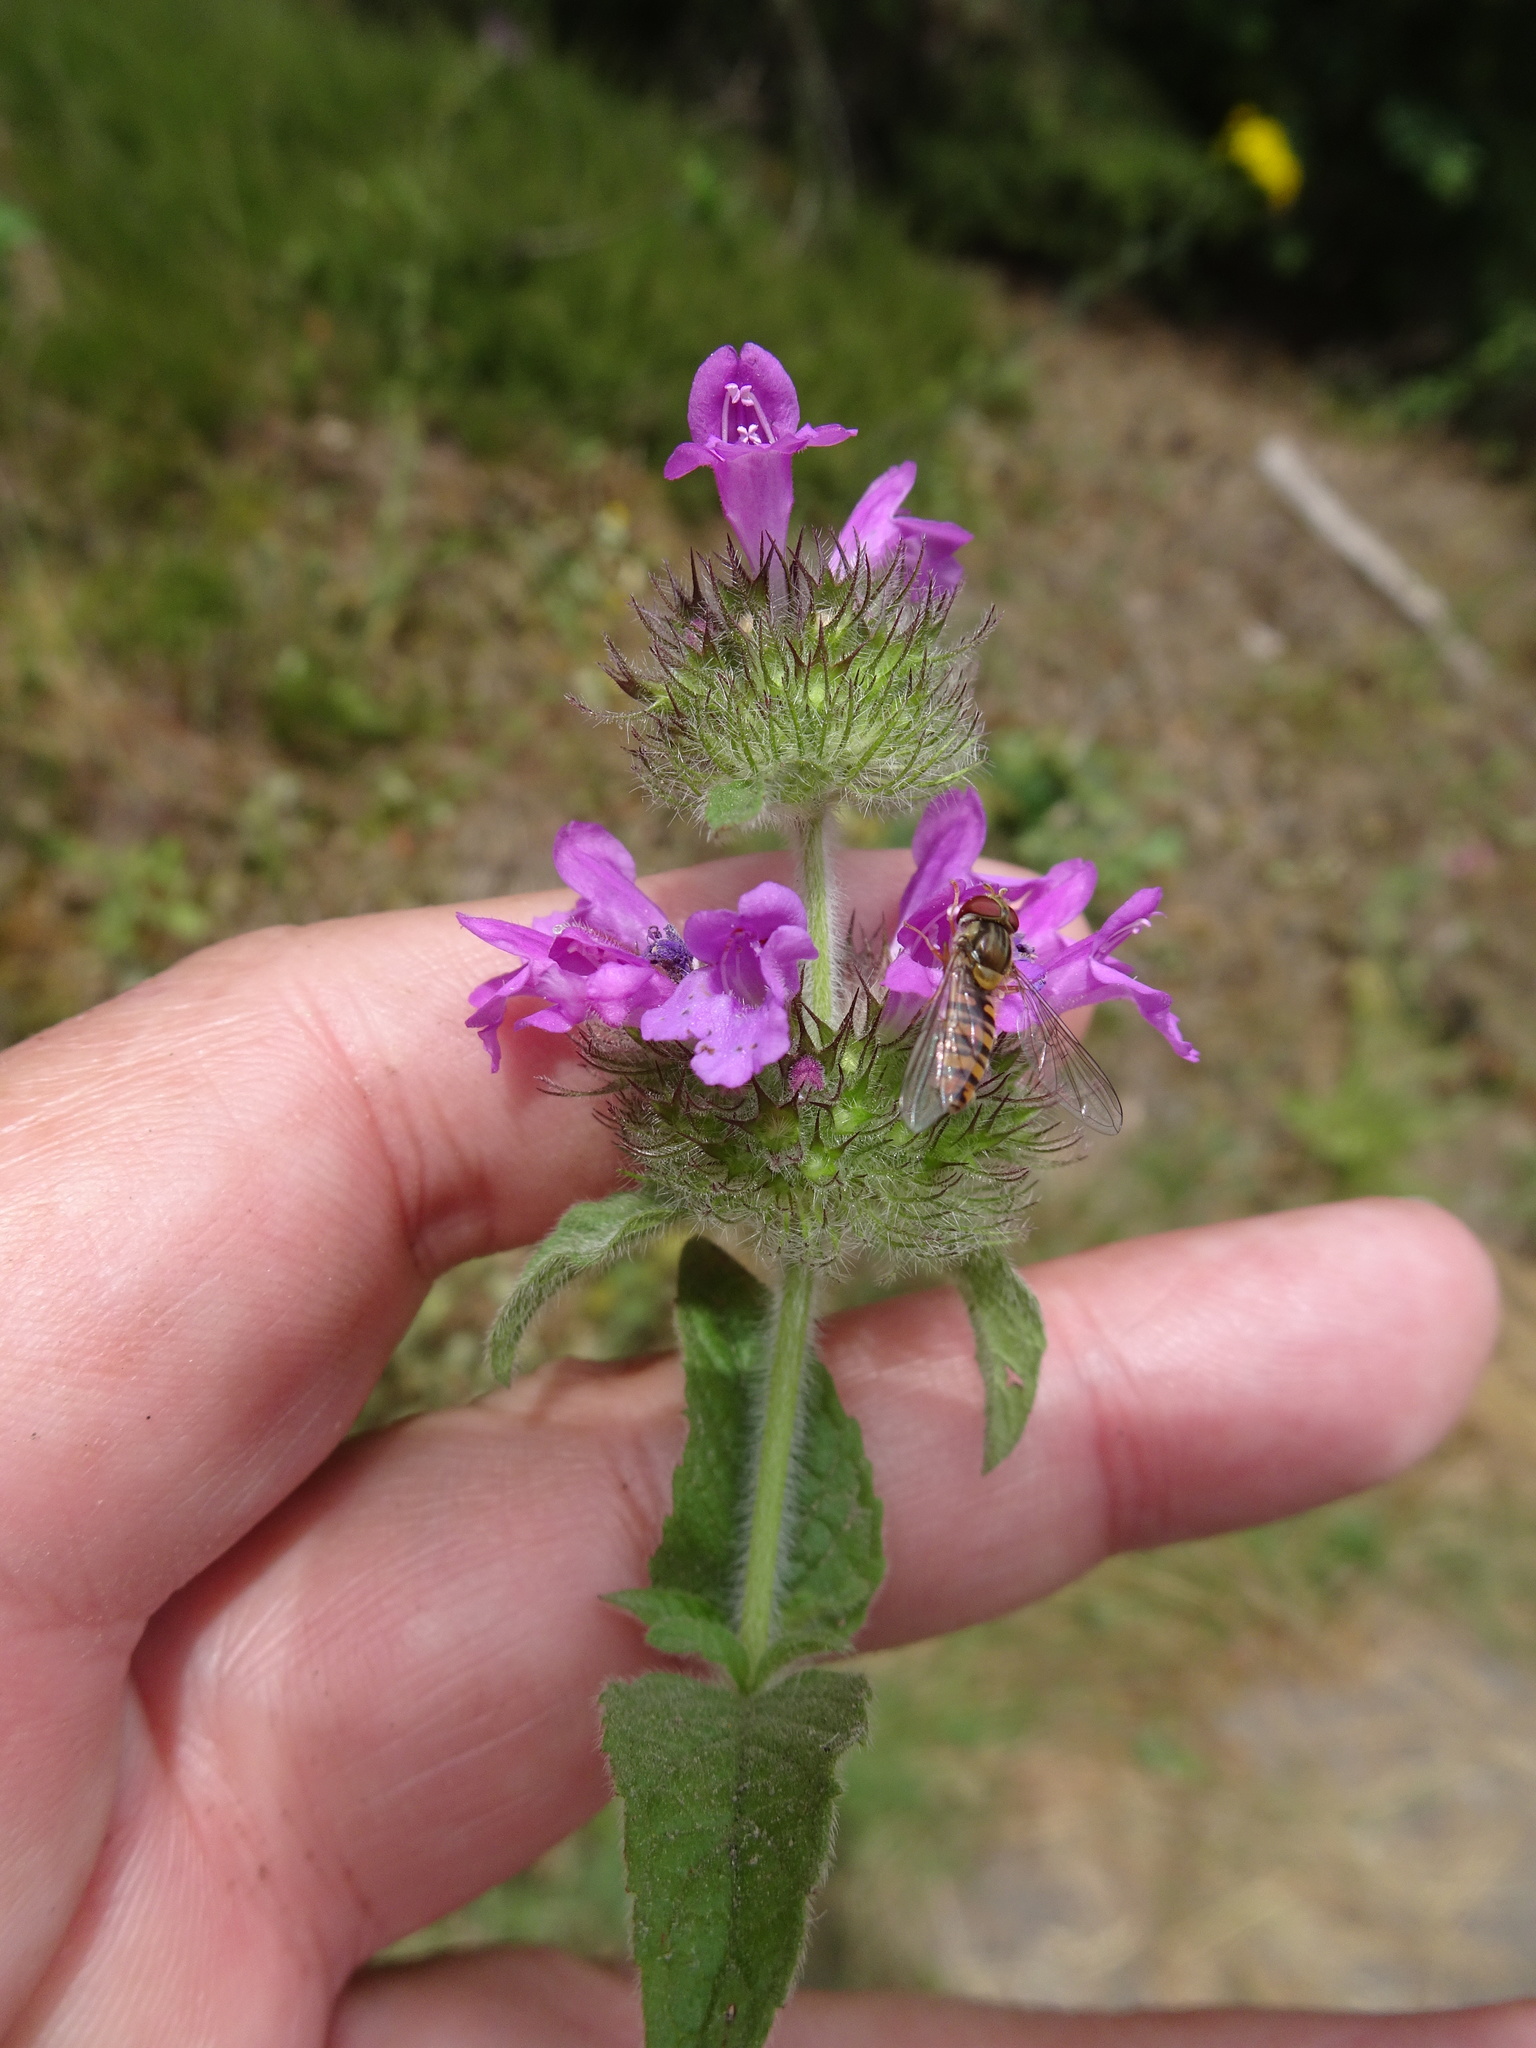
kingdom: Plantae
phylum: Tracheophyta
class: Magnoliopsida
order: Lamiales
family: Lamiaceae
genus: Clinopodium
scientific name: Clinopodium vulgare
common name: Wild basil
